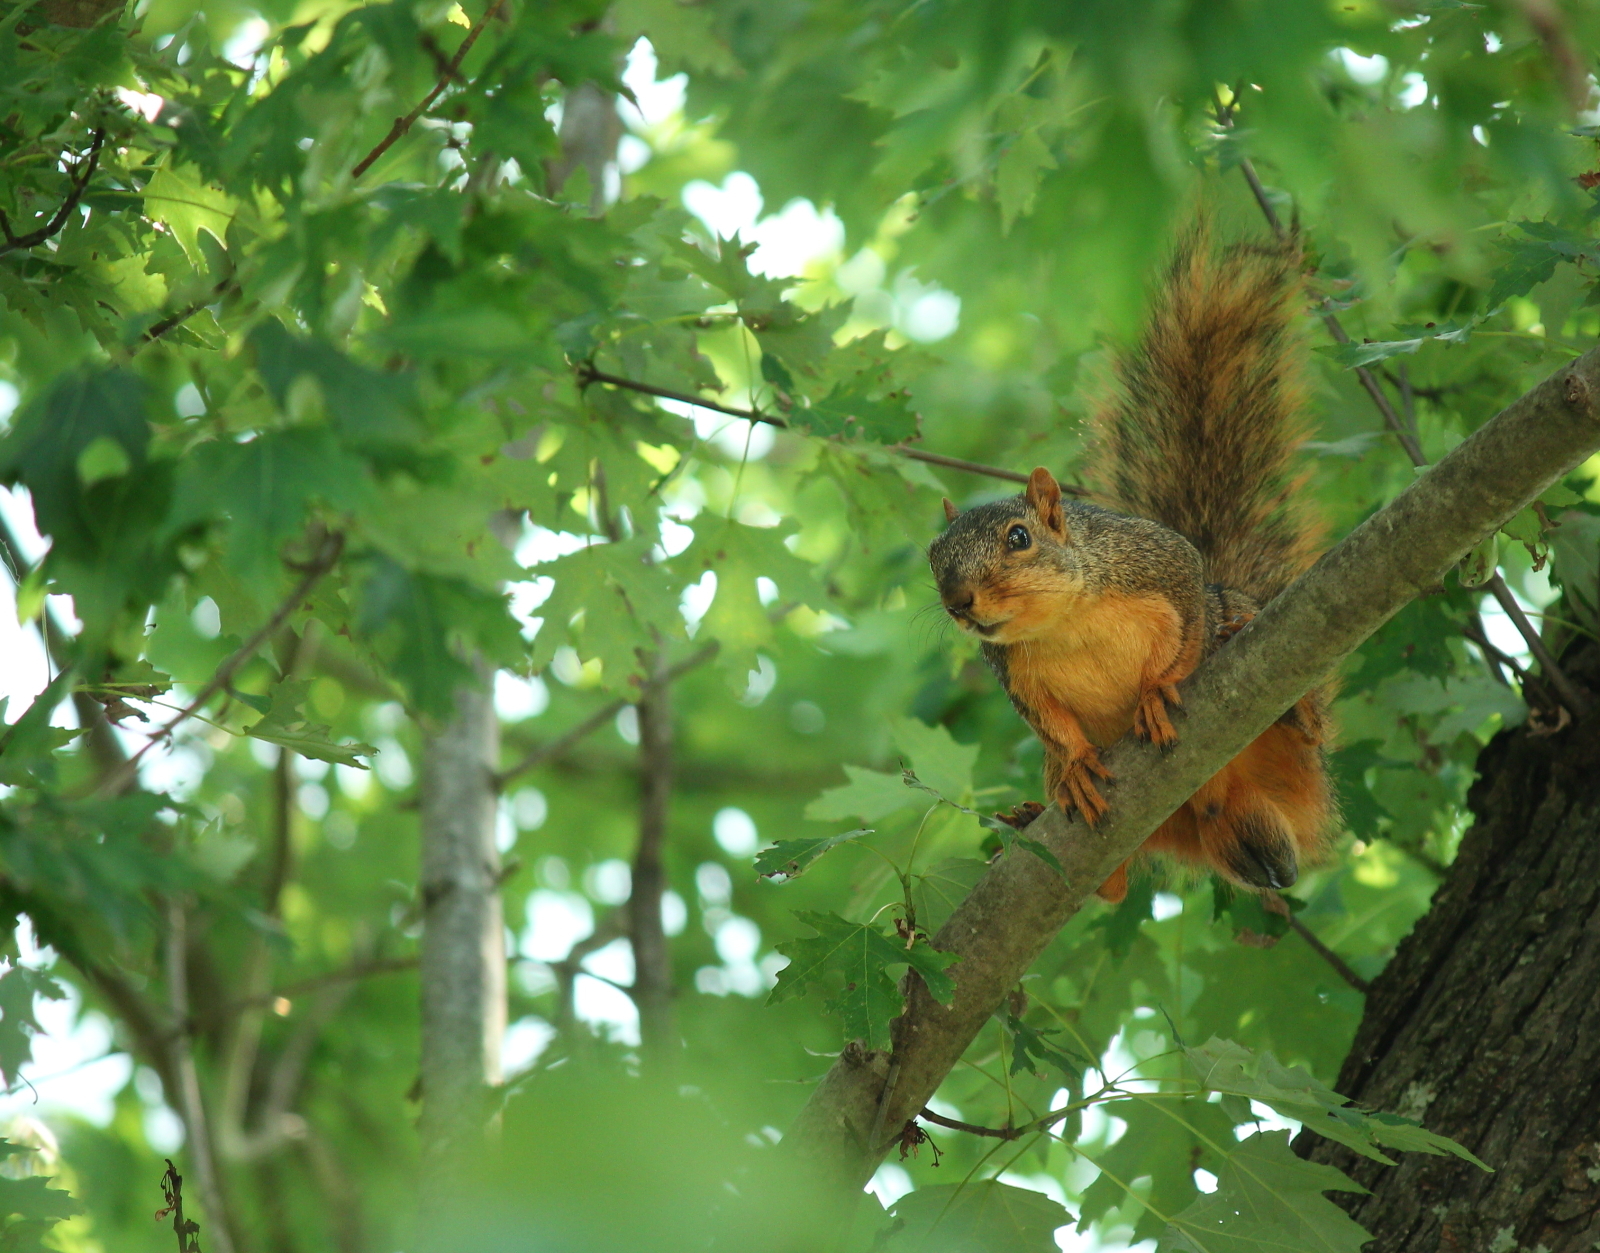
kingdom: Animalia
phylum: Chordata
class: Mammalia
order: Rodentia
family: Sciuridae
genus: Sciurus
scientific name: Sciurus niger
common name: Fox squirrel
